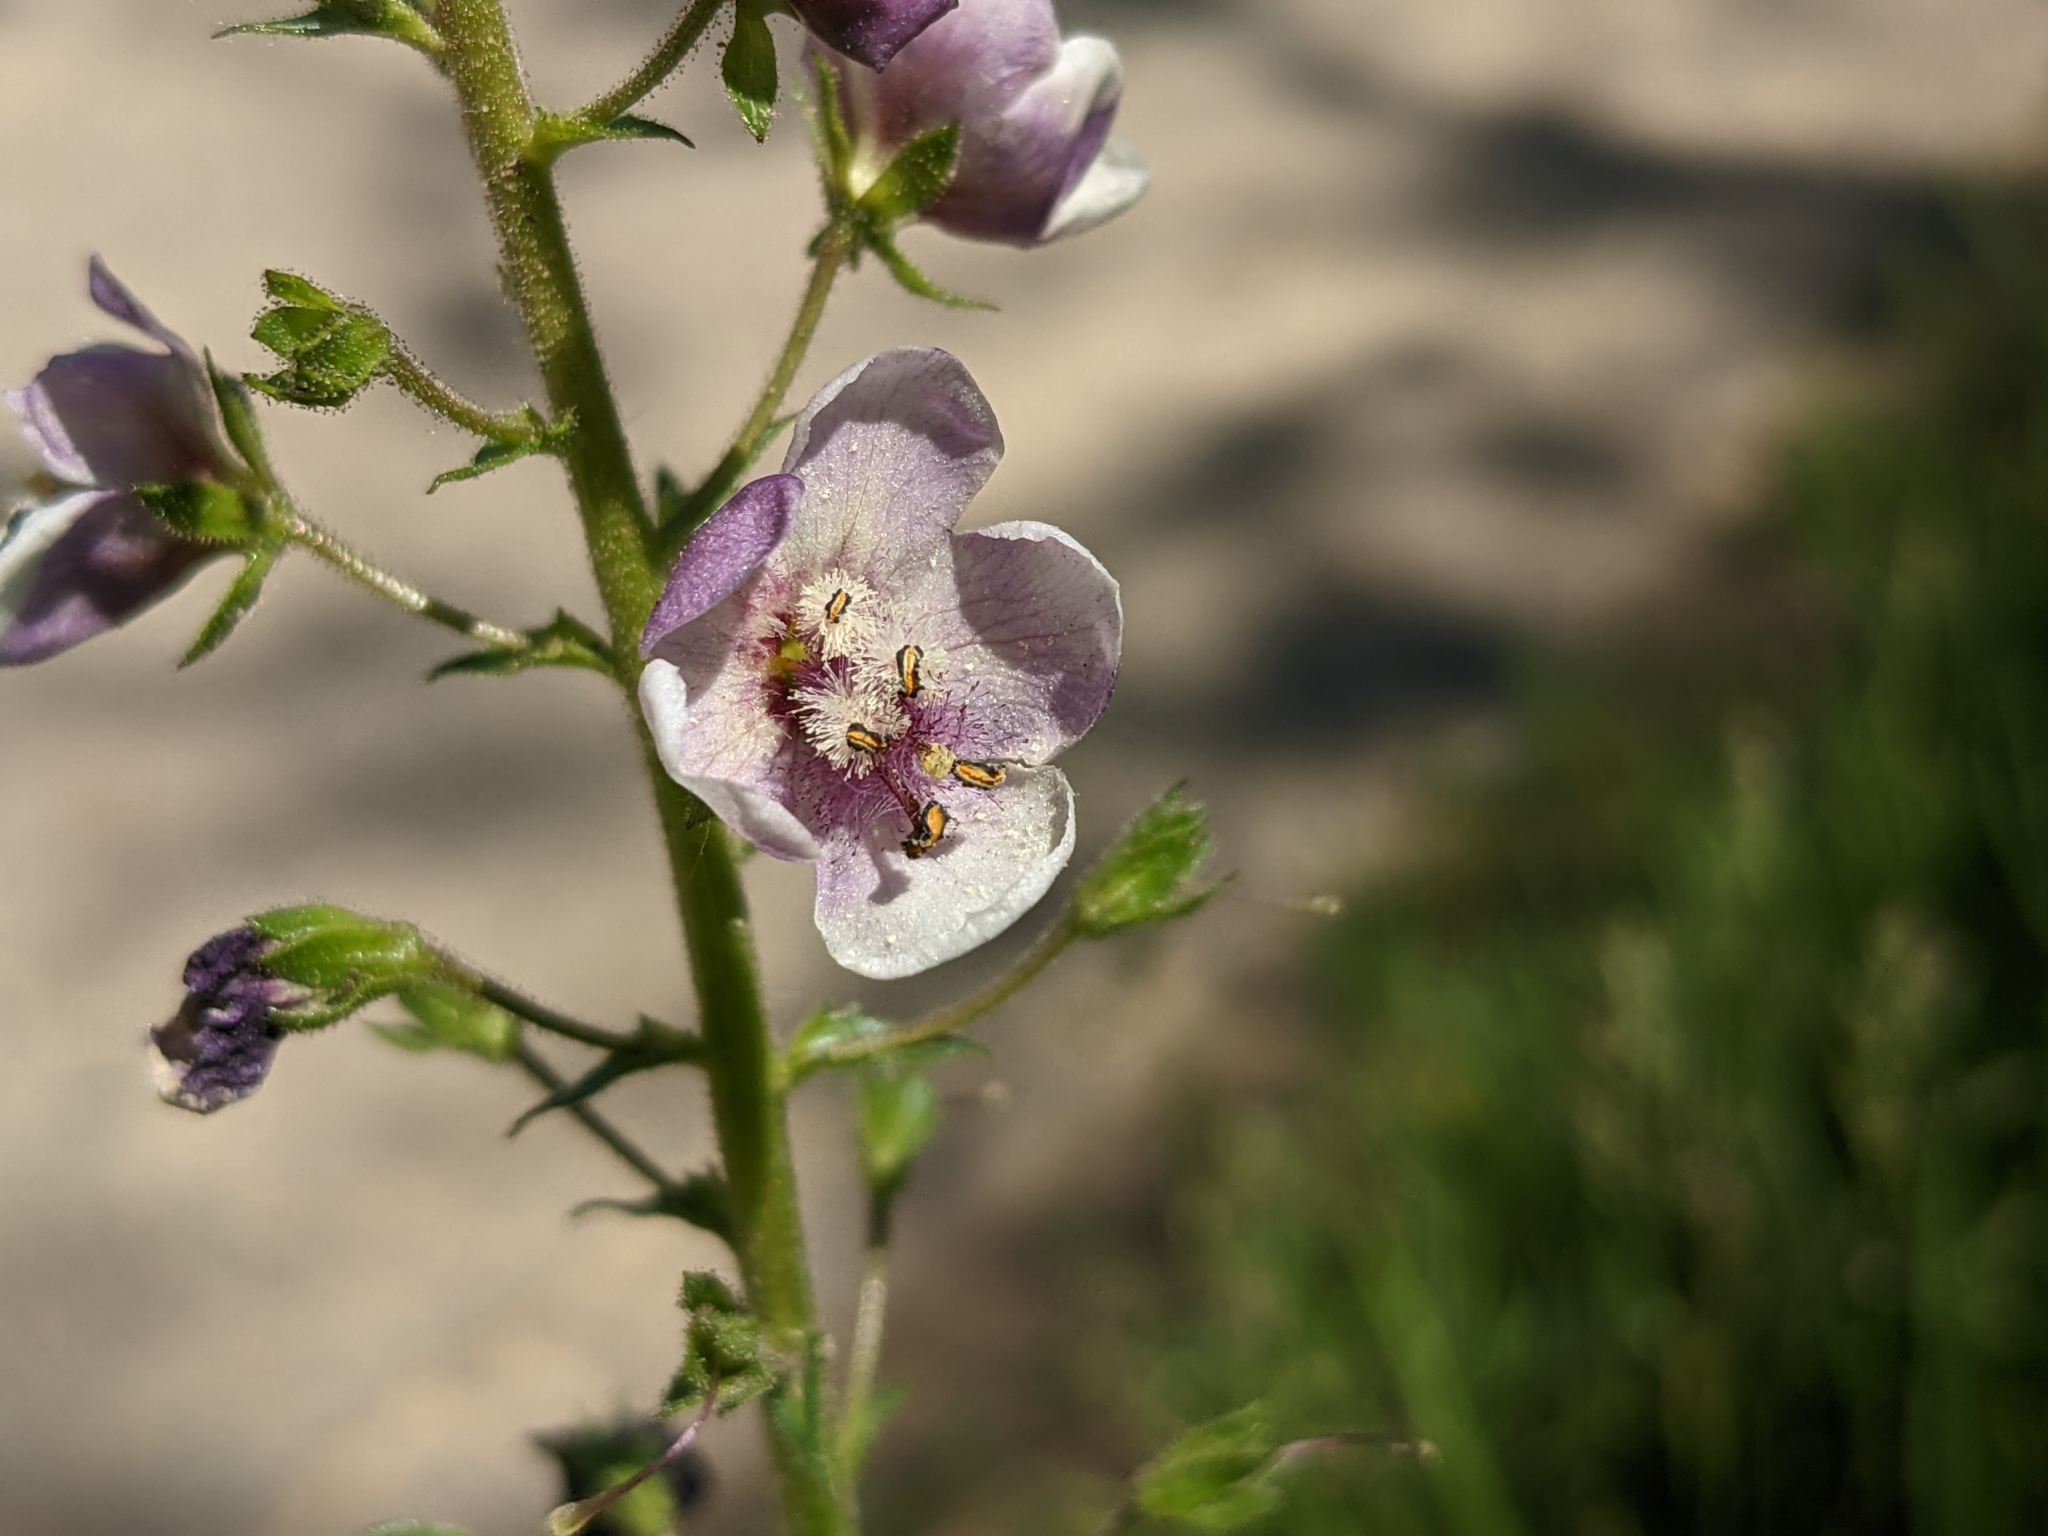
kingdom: Plantae
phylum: Tracheophyta
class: Magnoliopsida
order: Lamiales
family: Scrophulariaceae
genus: Verbascum
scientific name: Verbascum phoeniceum
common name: Purple mullein
